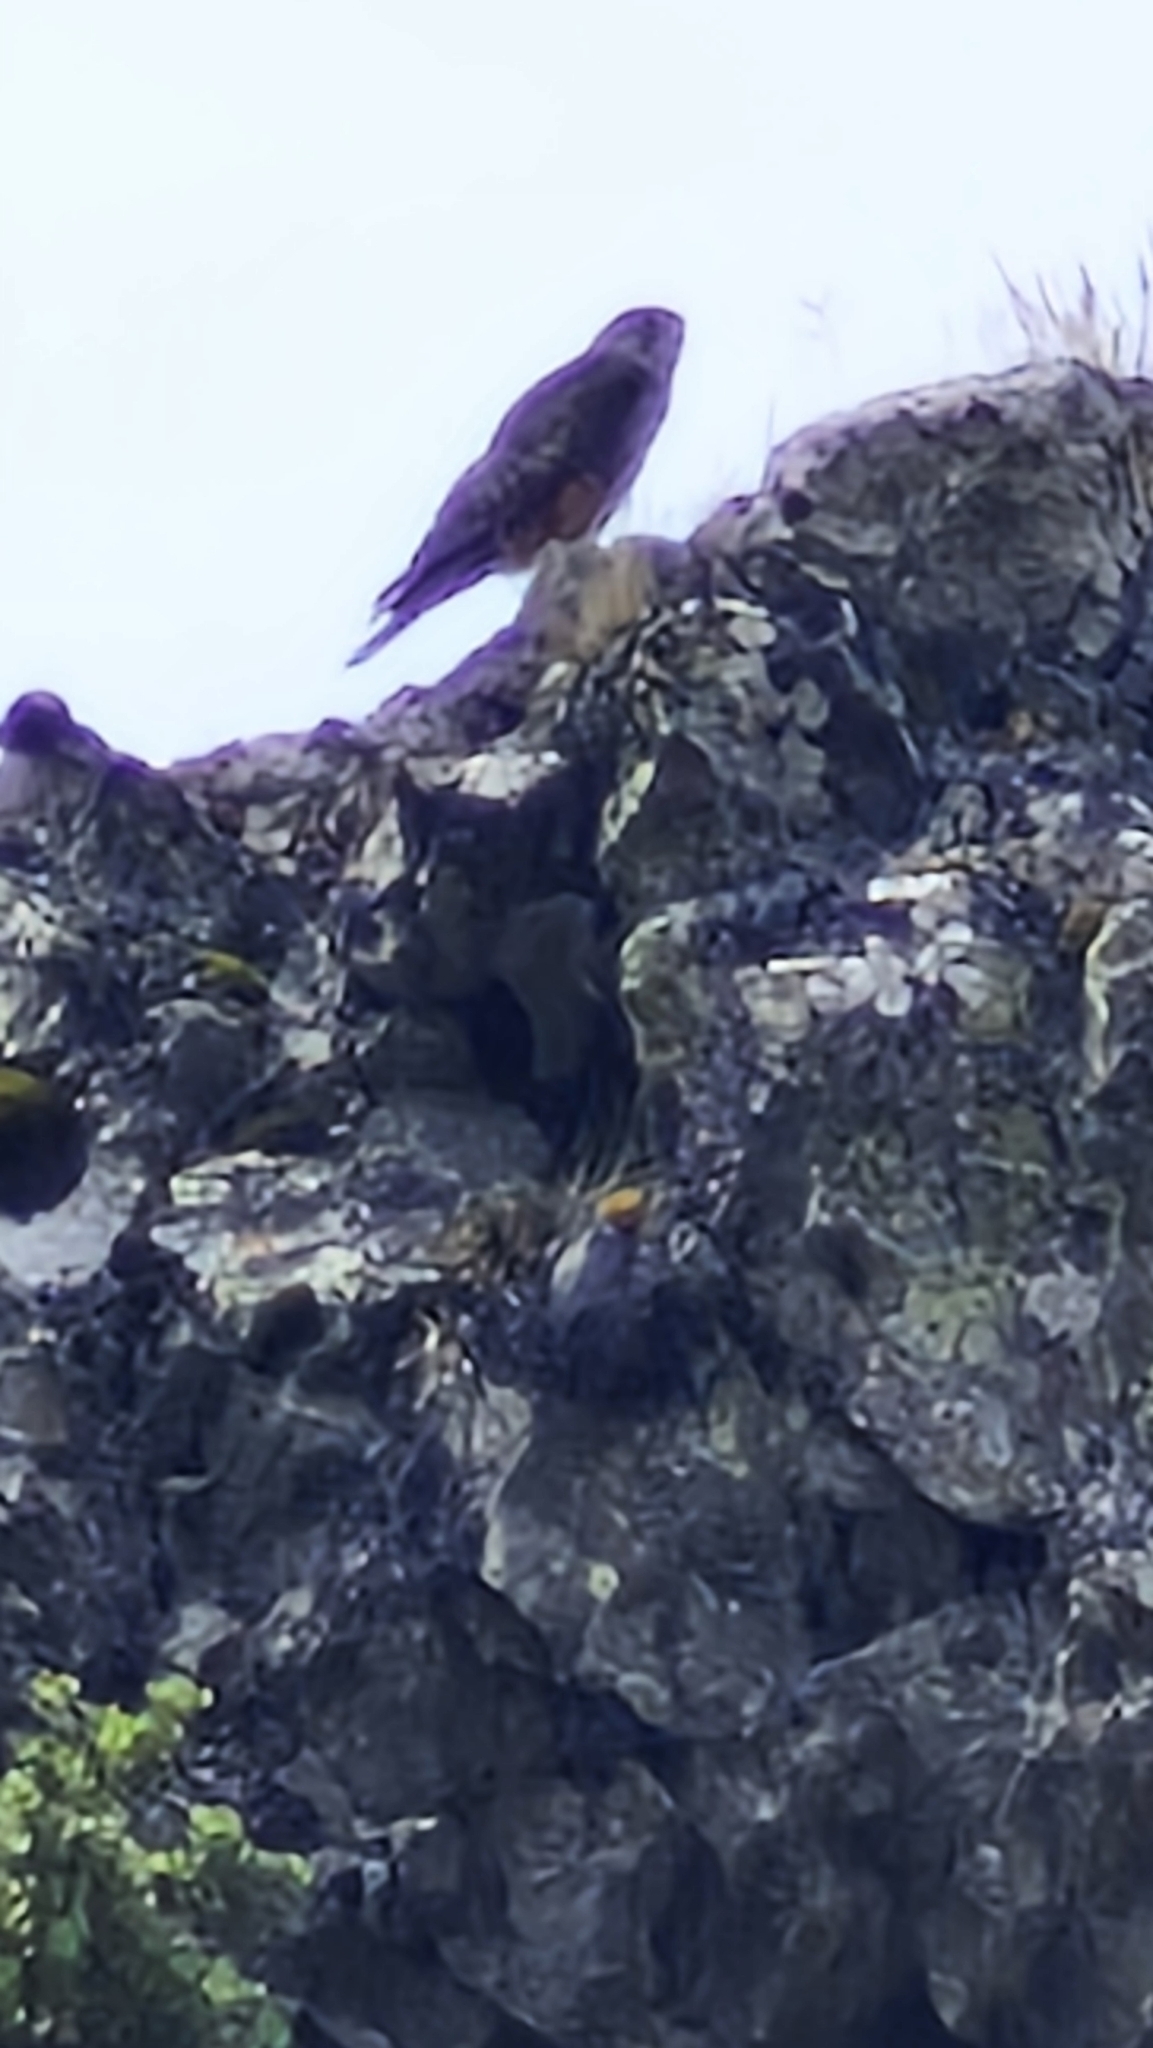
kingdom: Animalia
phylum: Chordata
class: Aves
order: Falconiformes
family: Falconidae
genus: Falco
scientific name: Falco novaeseelandiae
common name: New zealand falcon
